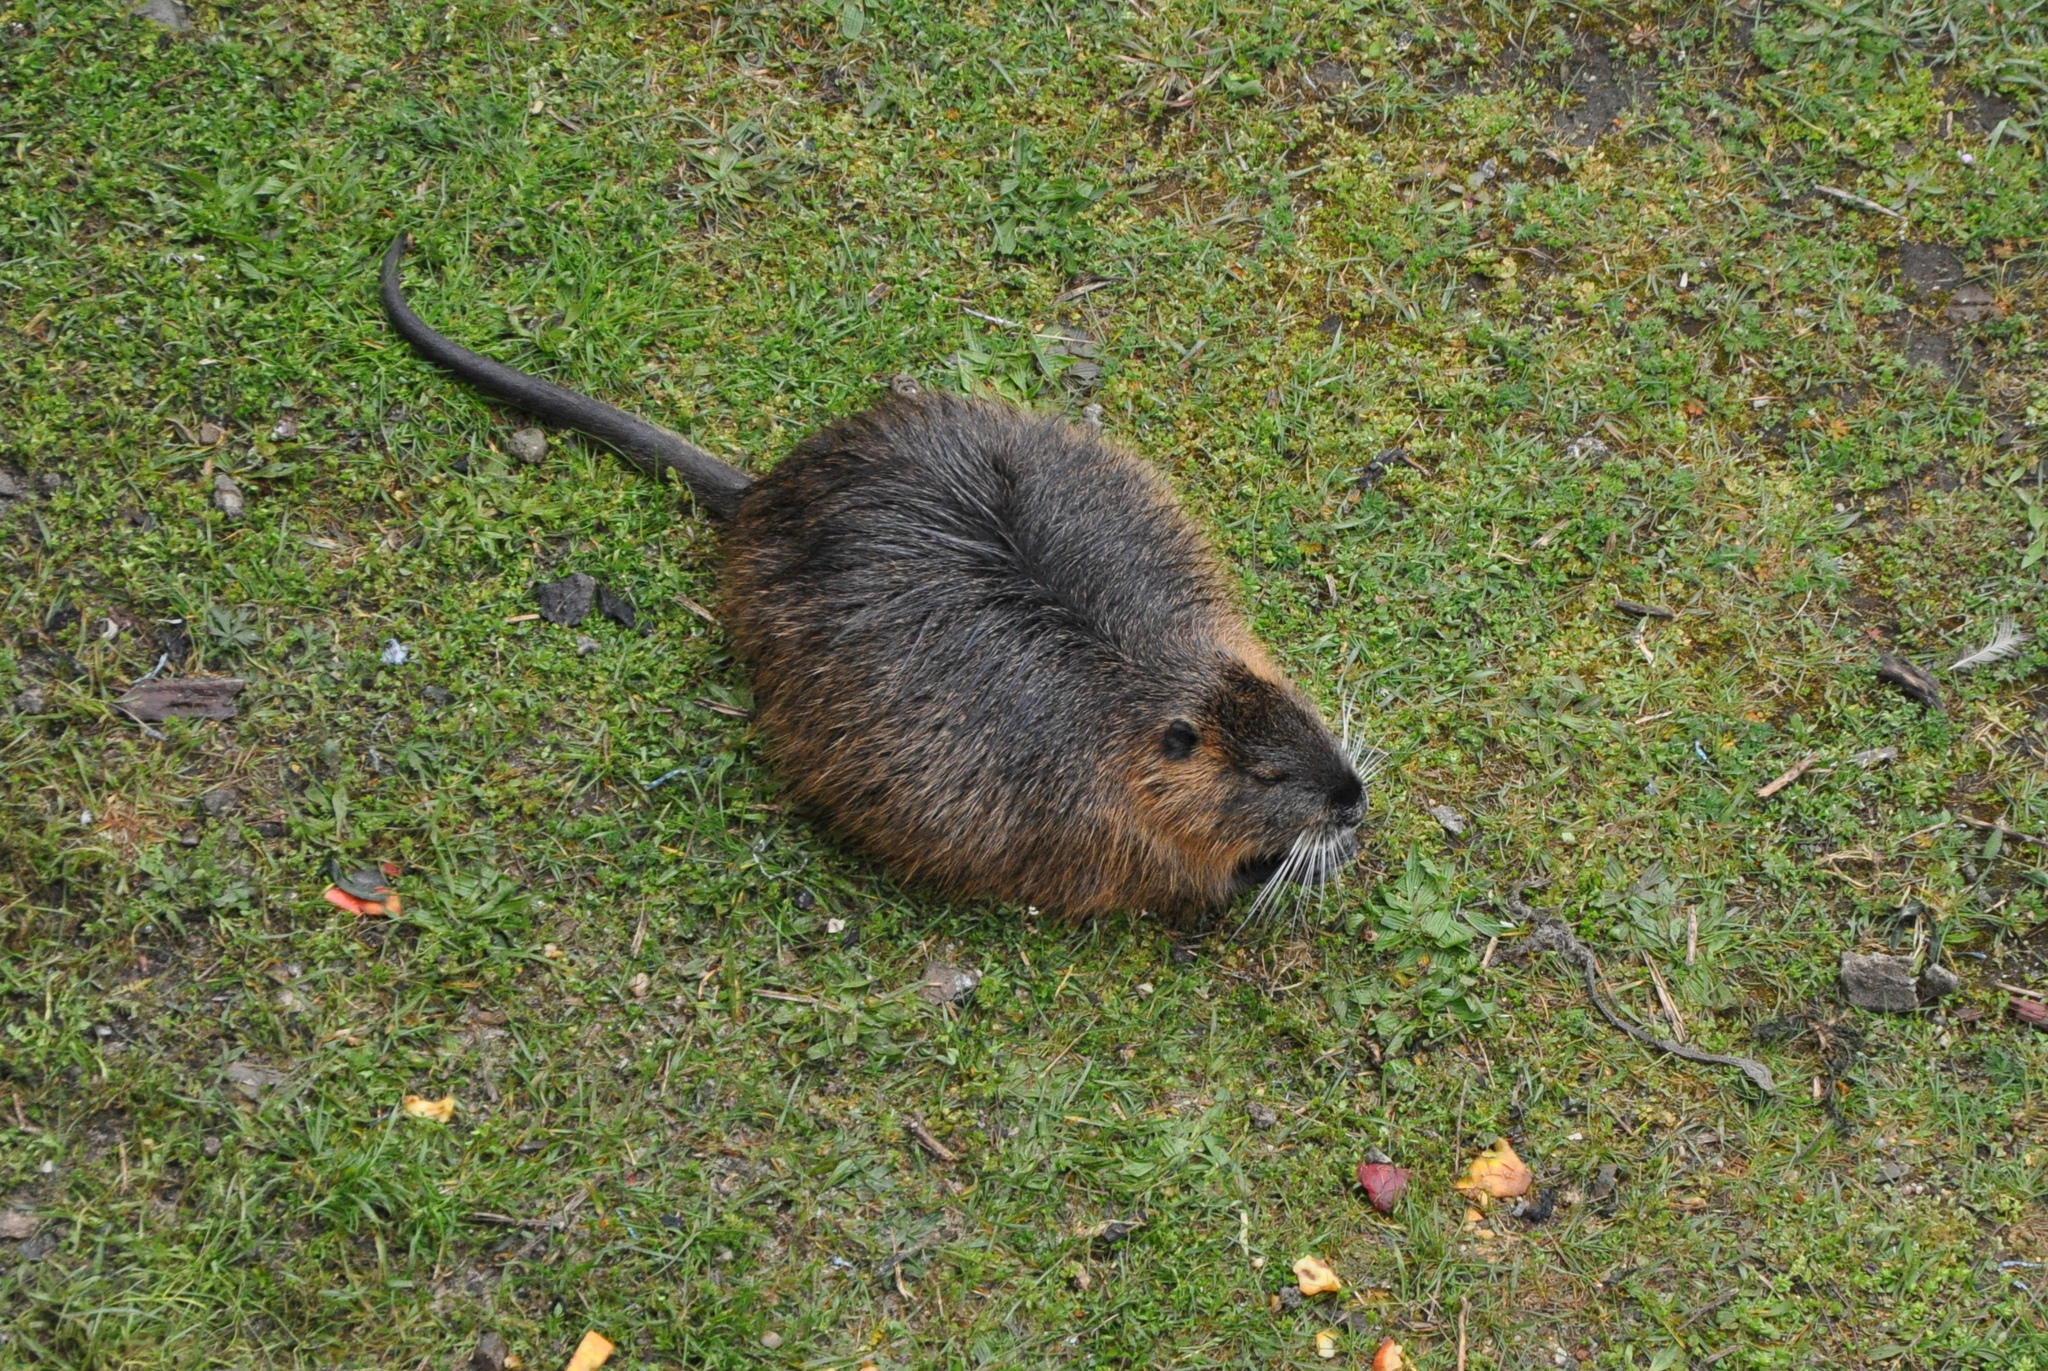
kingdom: Animalia
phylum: Chordata
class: Mammalia
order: Rodentia
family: Myocastoridae
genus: Myocastor
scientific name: Myocastor coypus
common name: Coypu
